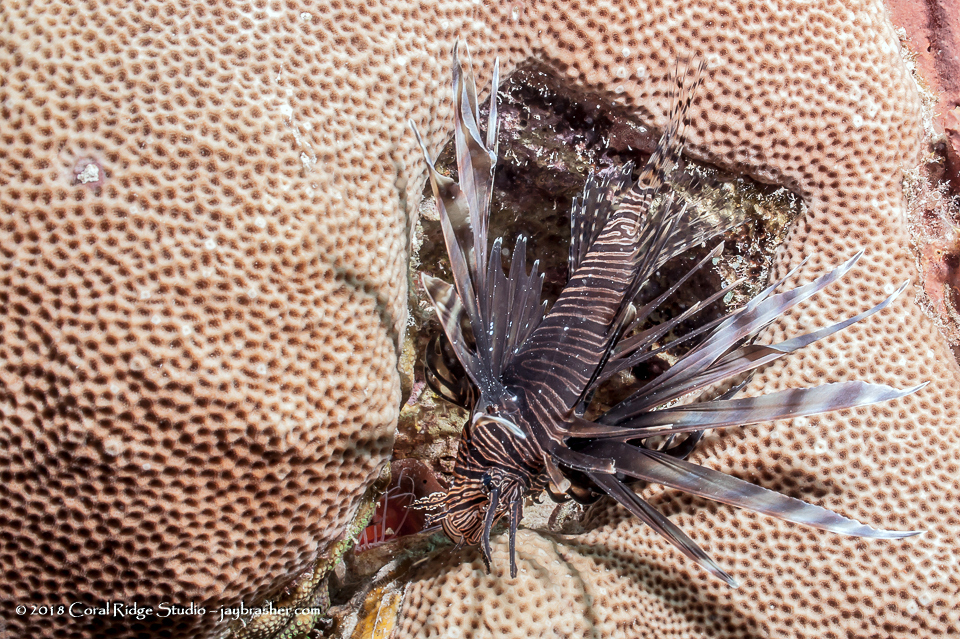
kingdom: Animalia
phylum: Chordata
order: Scorpaeniformes
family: Scorpaenidae
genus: Pterois
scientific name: Pterois volitans
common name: Lionfish
